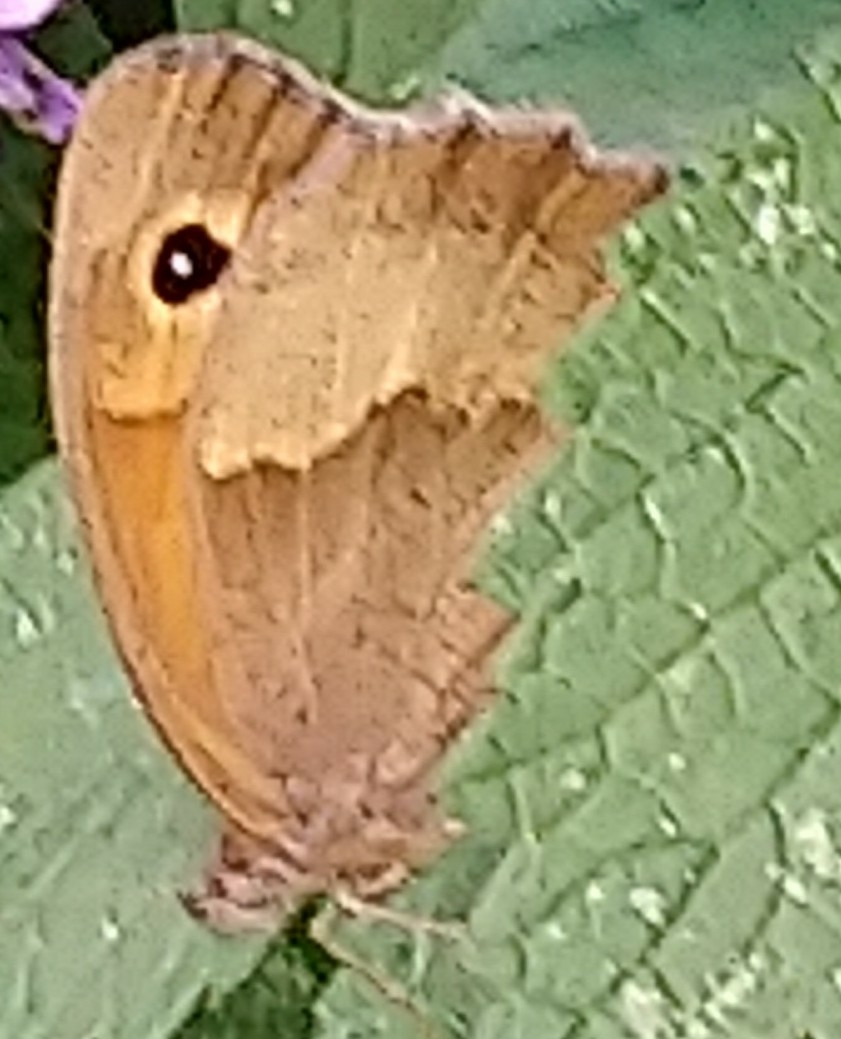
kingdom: Animalia
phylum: Arthropoda
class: Insecta
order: Lepidoptera
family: Nymphalidae
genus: Maniola
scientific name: Maniola jurtina
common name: Meadow brown
